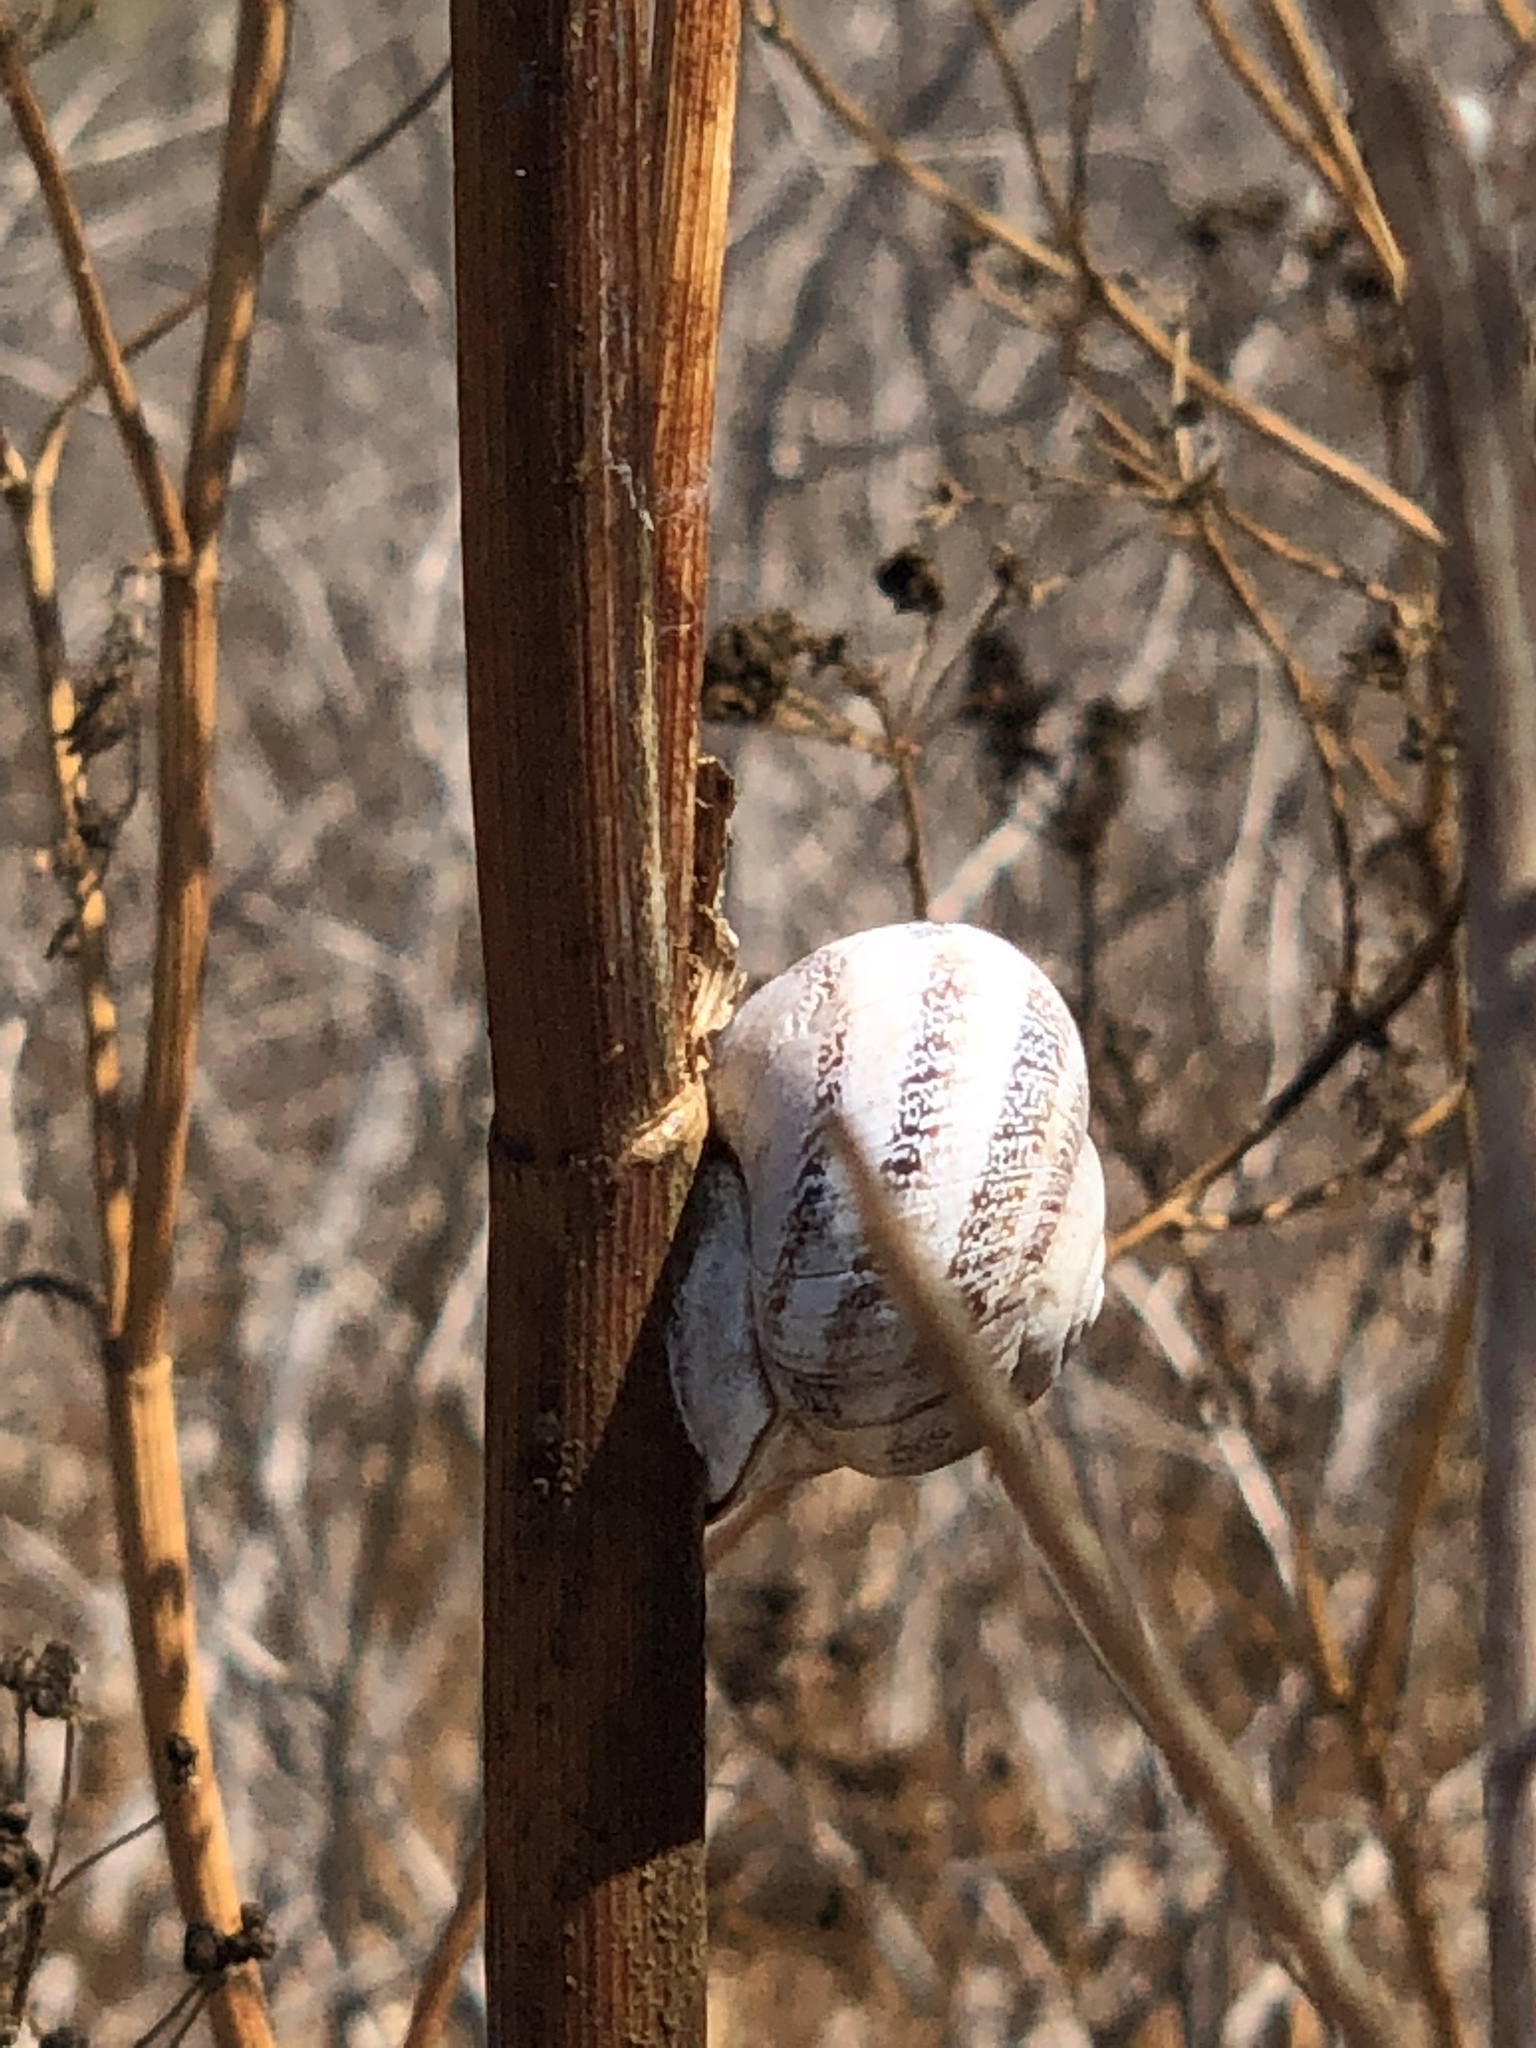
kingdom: Animalia
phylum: Mollusca
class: Gastropoda
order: Stylommatophora
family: Helicidae
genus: Otala
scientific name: Otala lactea
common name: Milk snail
